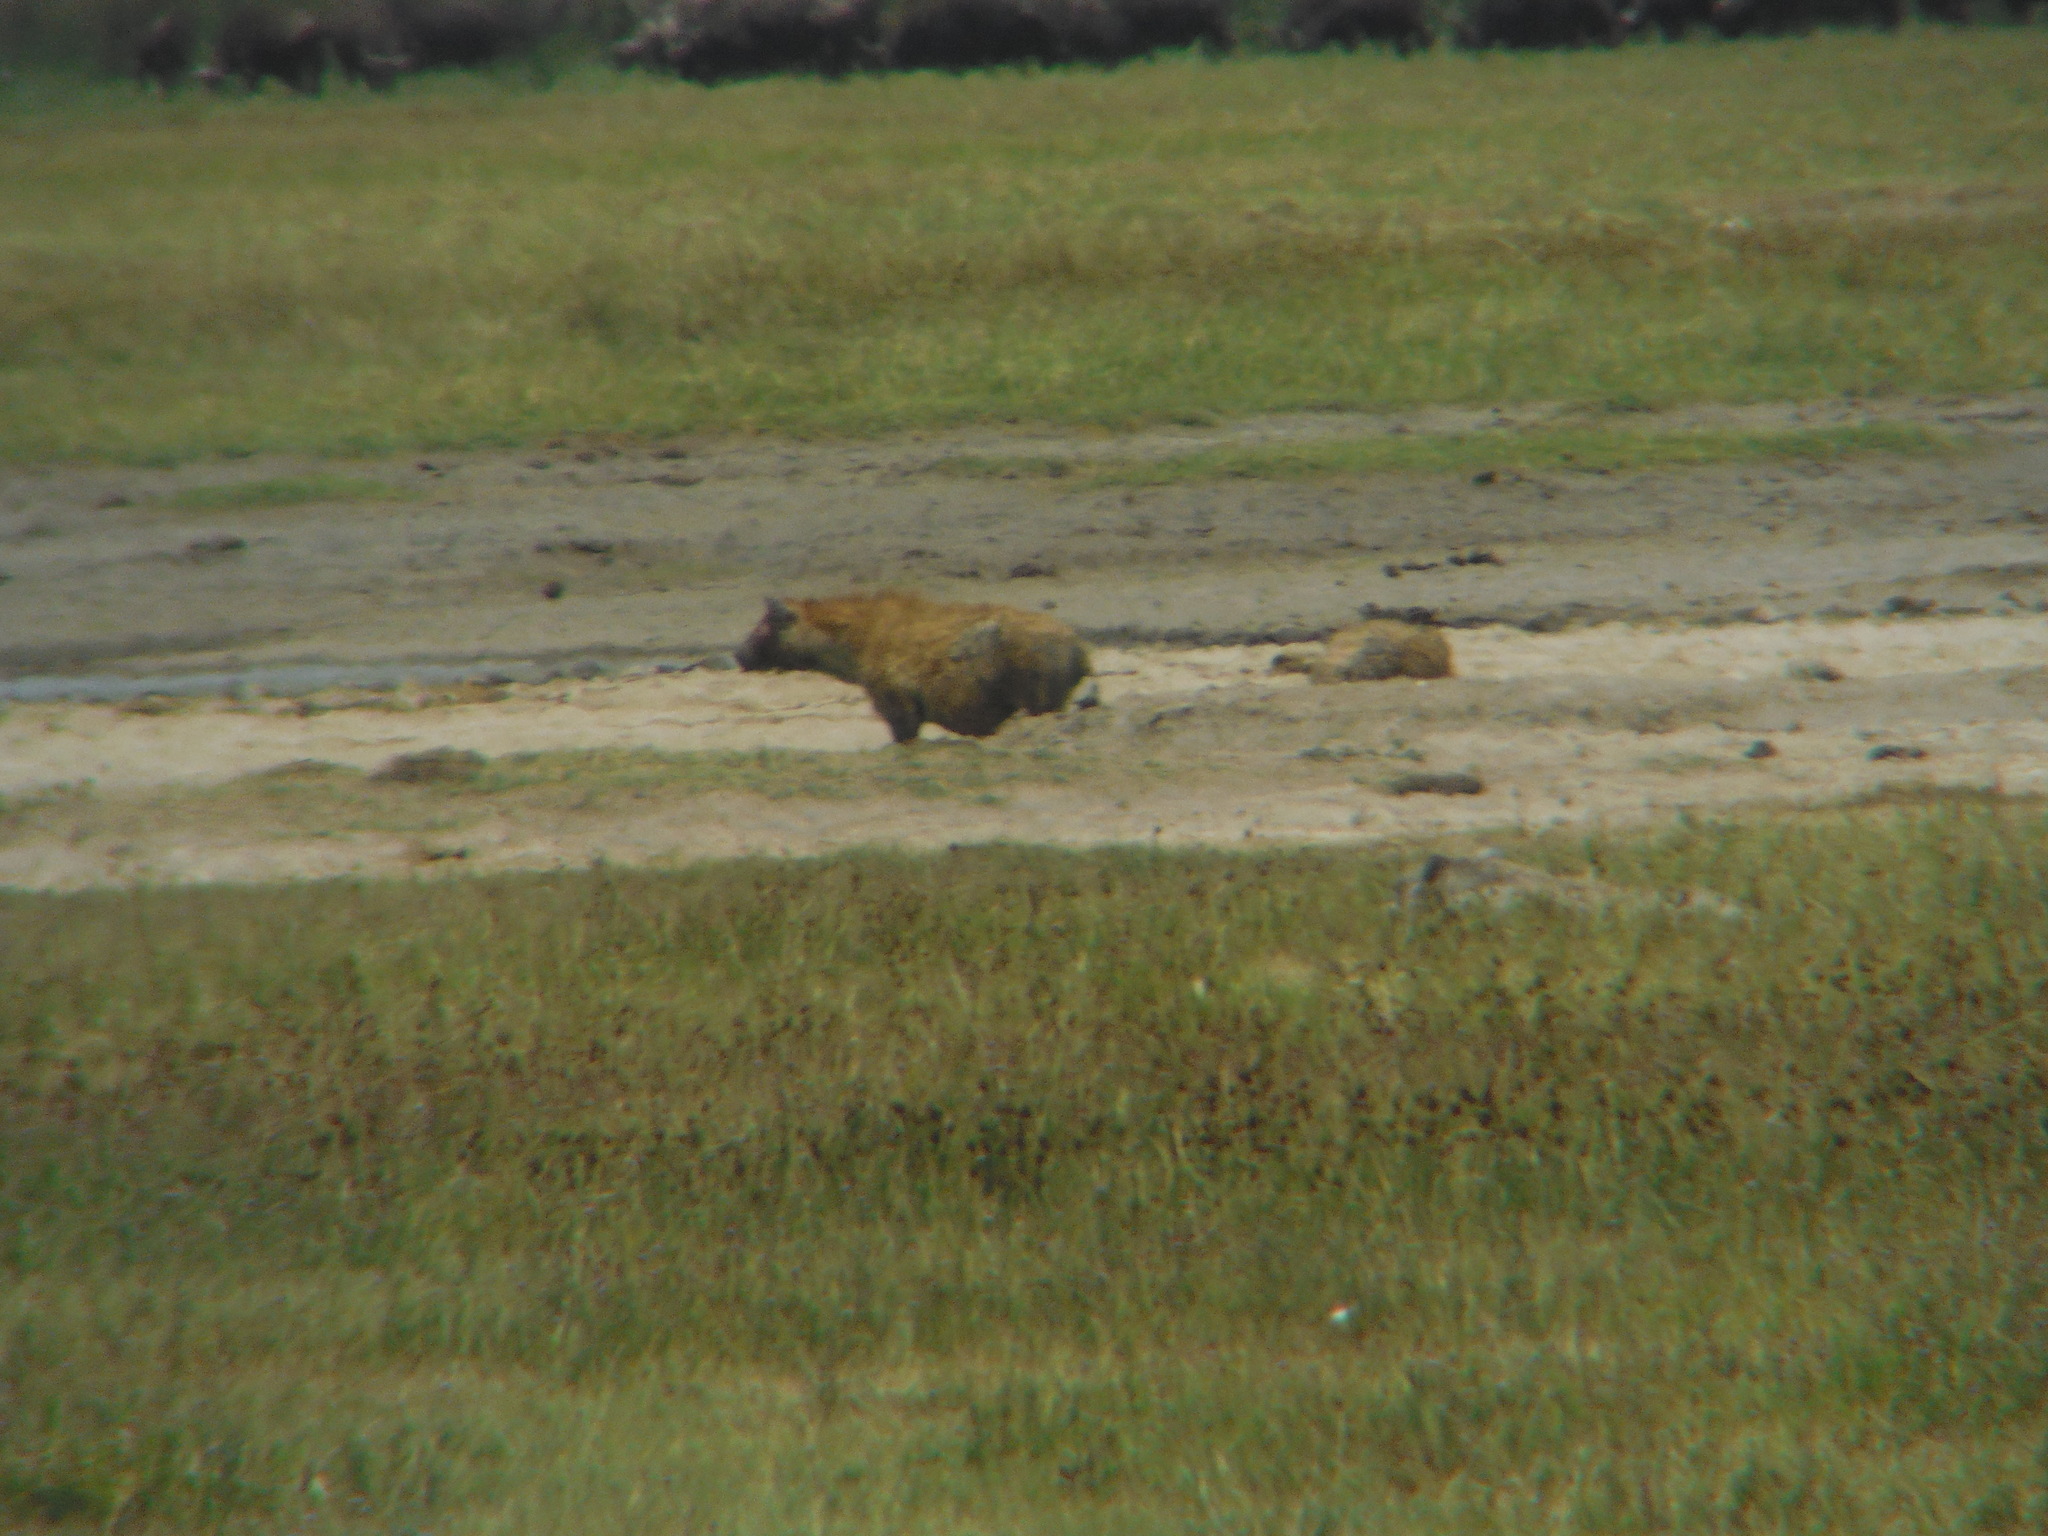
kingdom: Animalia
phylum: Chordata
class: Mammalia
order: Carnivora
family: Hyaenidae
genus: Crocuta
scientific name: Crocuta crocuta
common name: Spotted hyaena
